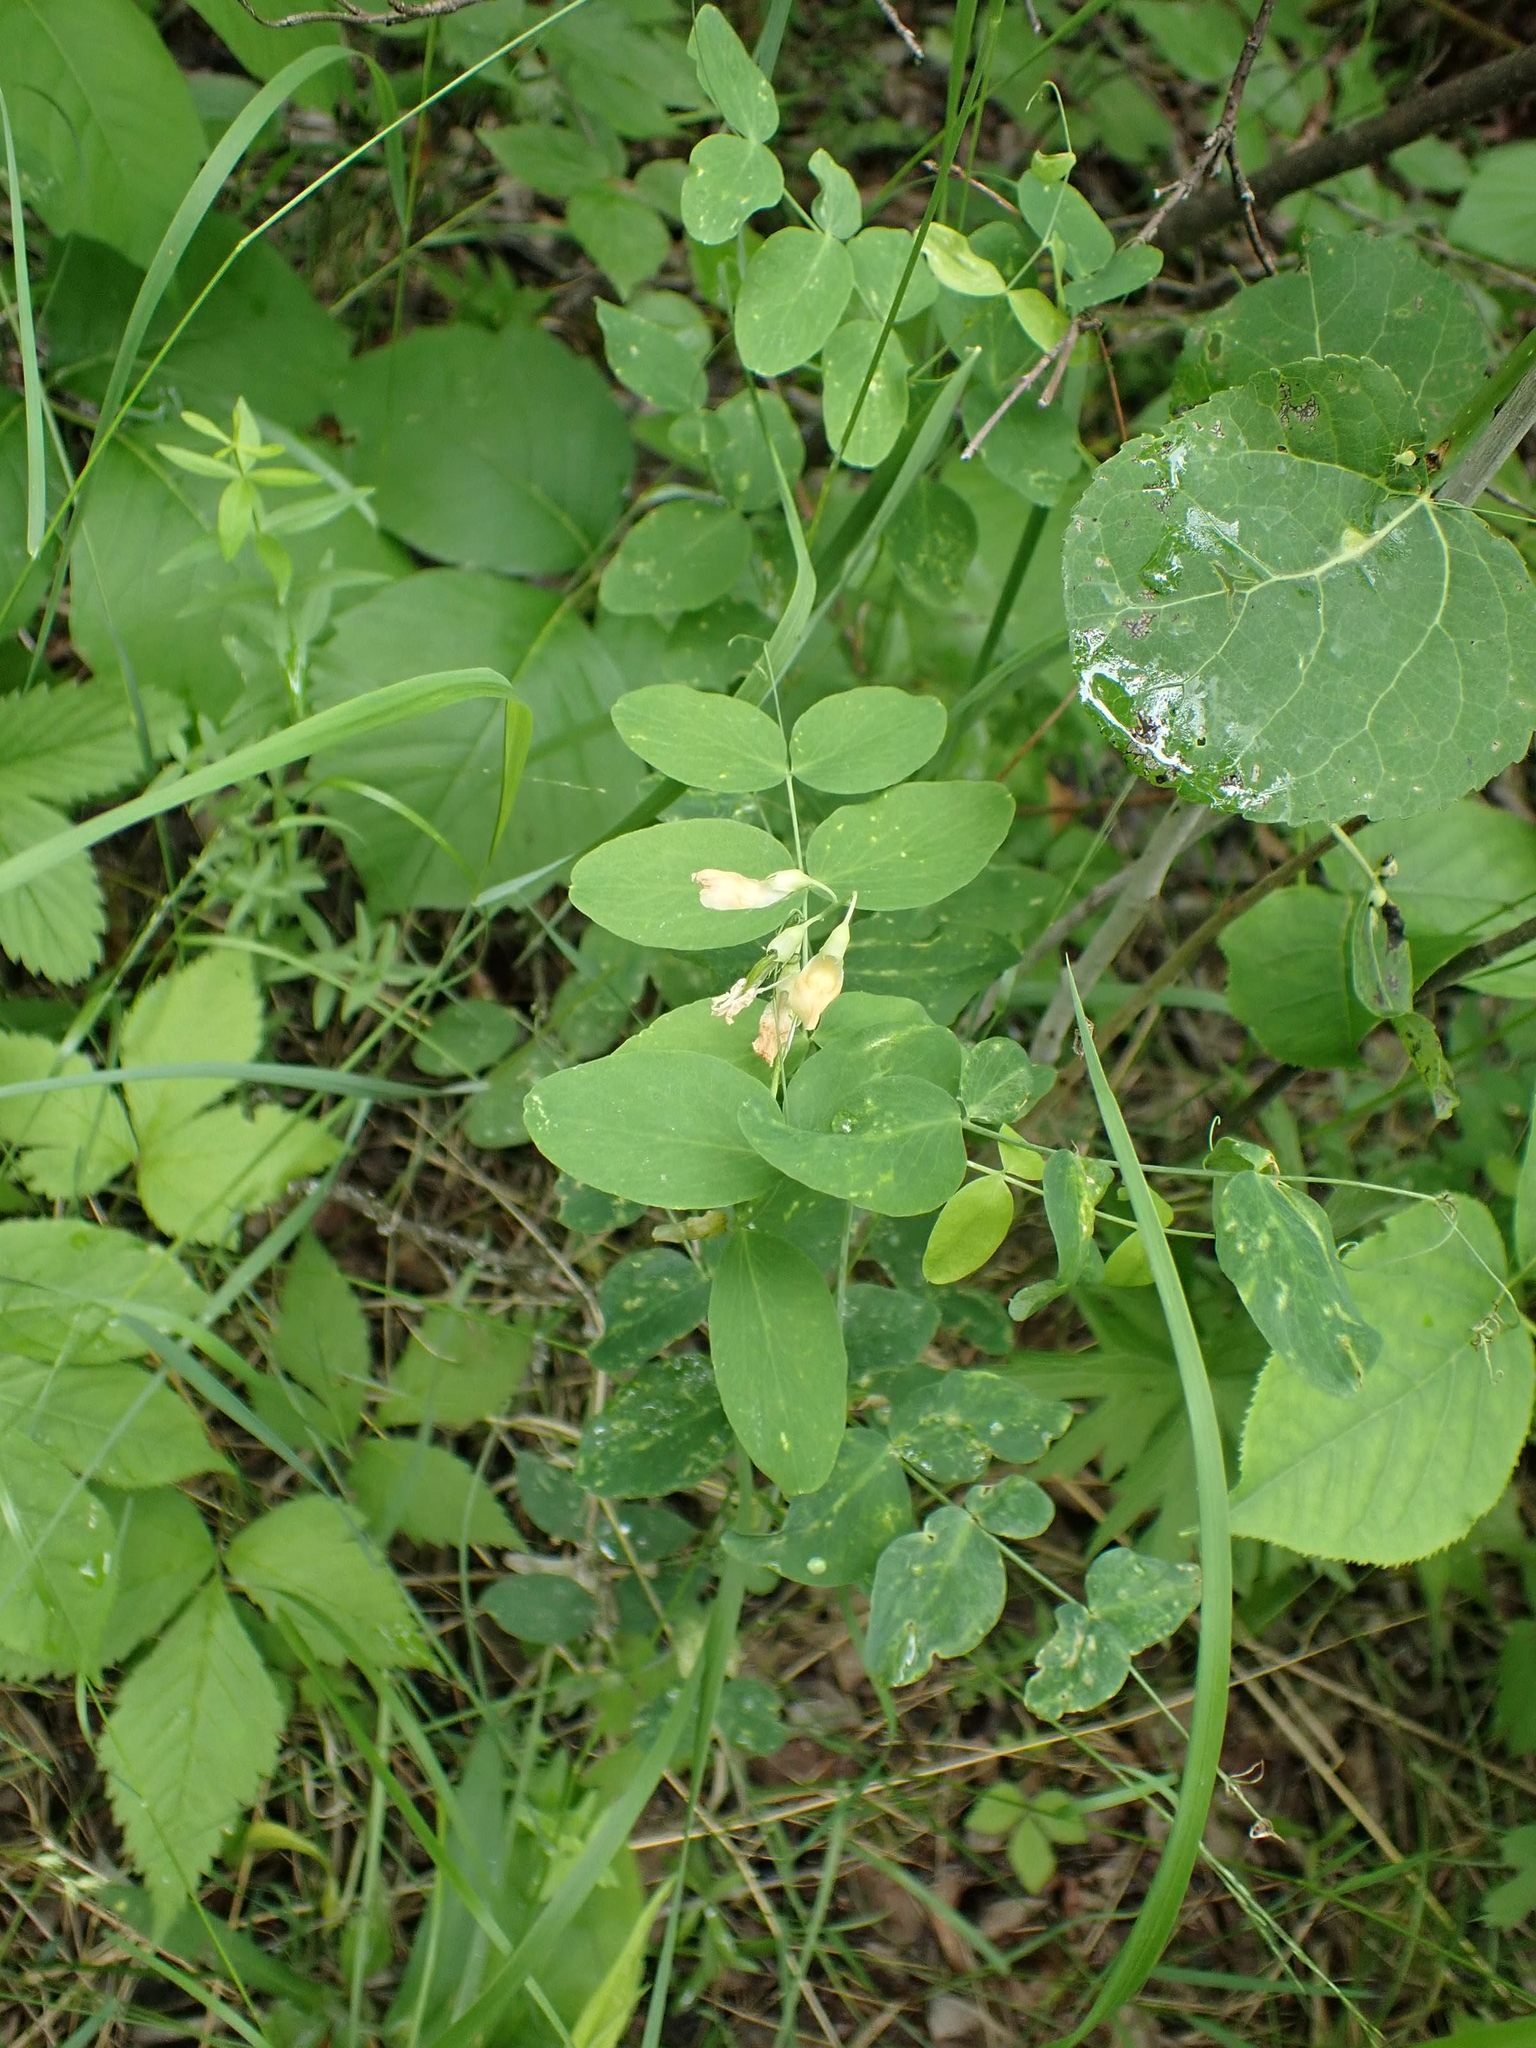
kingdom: Plantae
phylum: Tracheophyta
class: Magnoliopsida
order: Fabales
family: Fabaceae
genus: Lathyrus
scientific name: Lathyrus ochroleucus
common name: Pale vetchling
